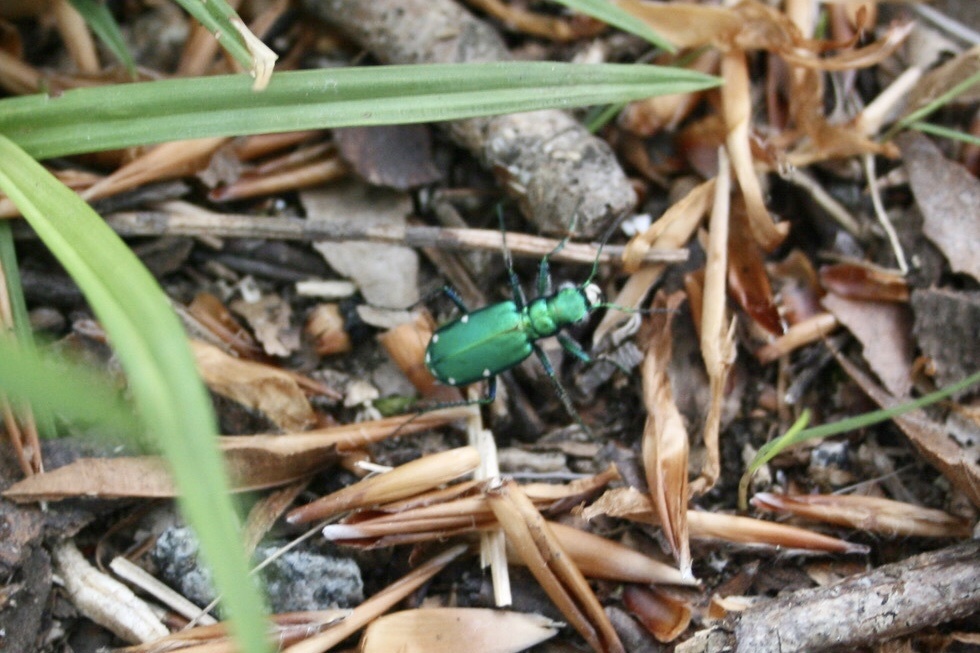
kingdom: Animalia
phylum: Arthropoda
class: Insecta
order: Coleoptera
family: Carabidae
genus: Cicindela
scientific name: Cicindela sexguttata
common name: Six-spotted tiger beetle
